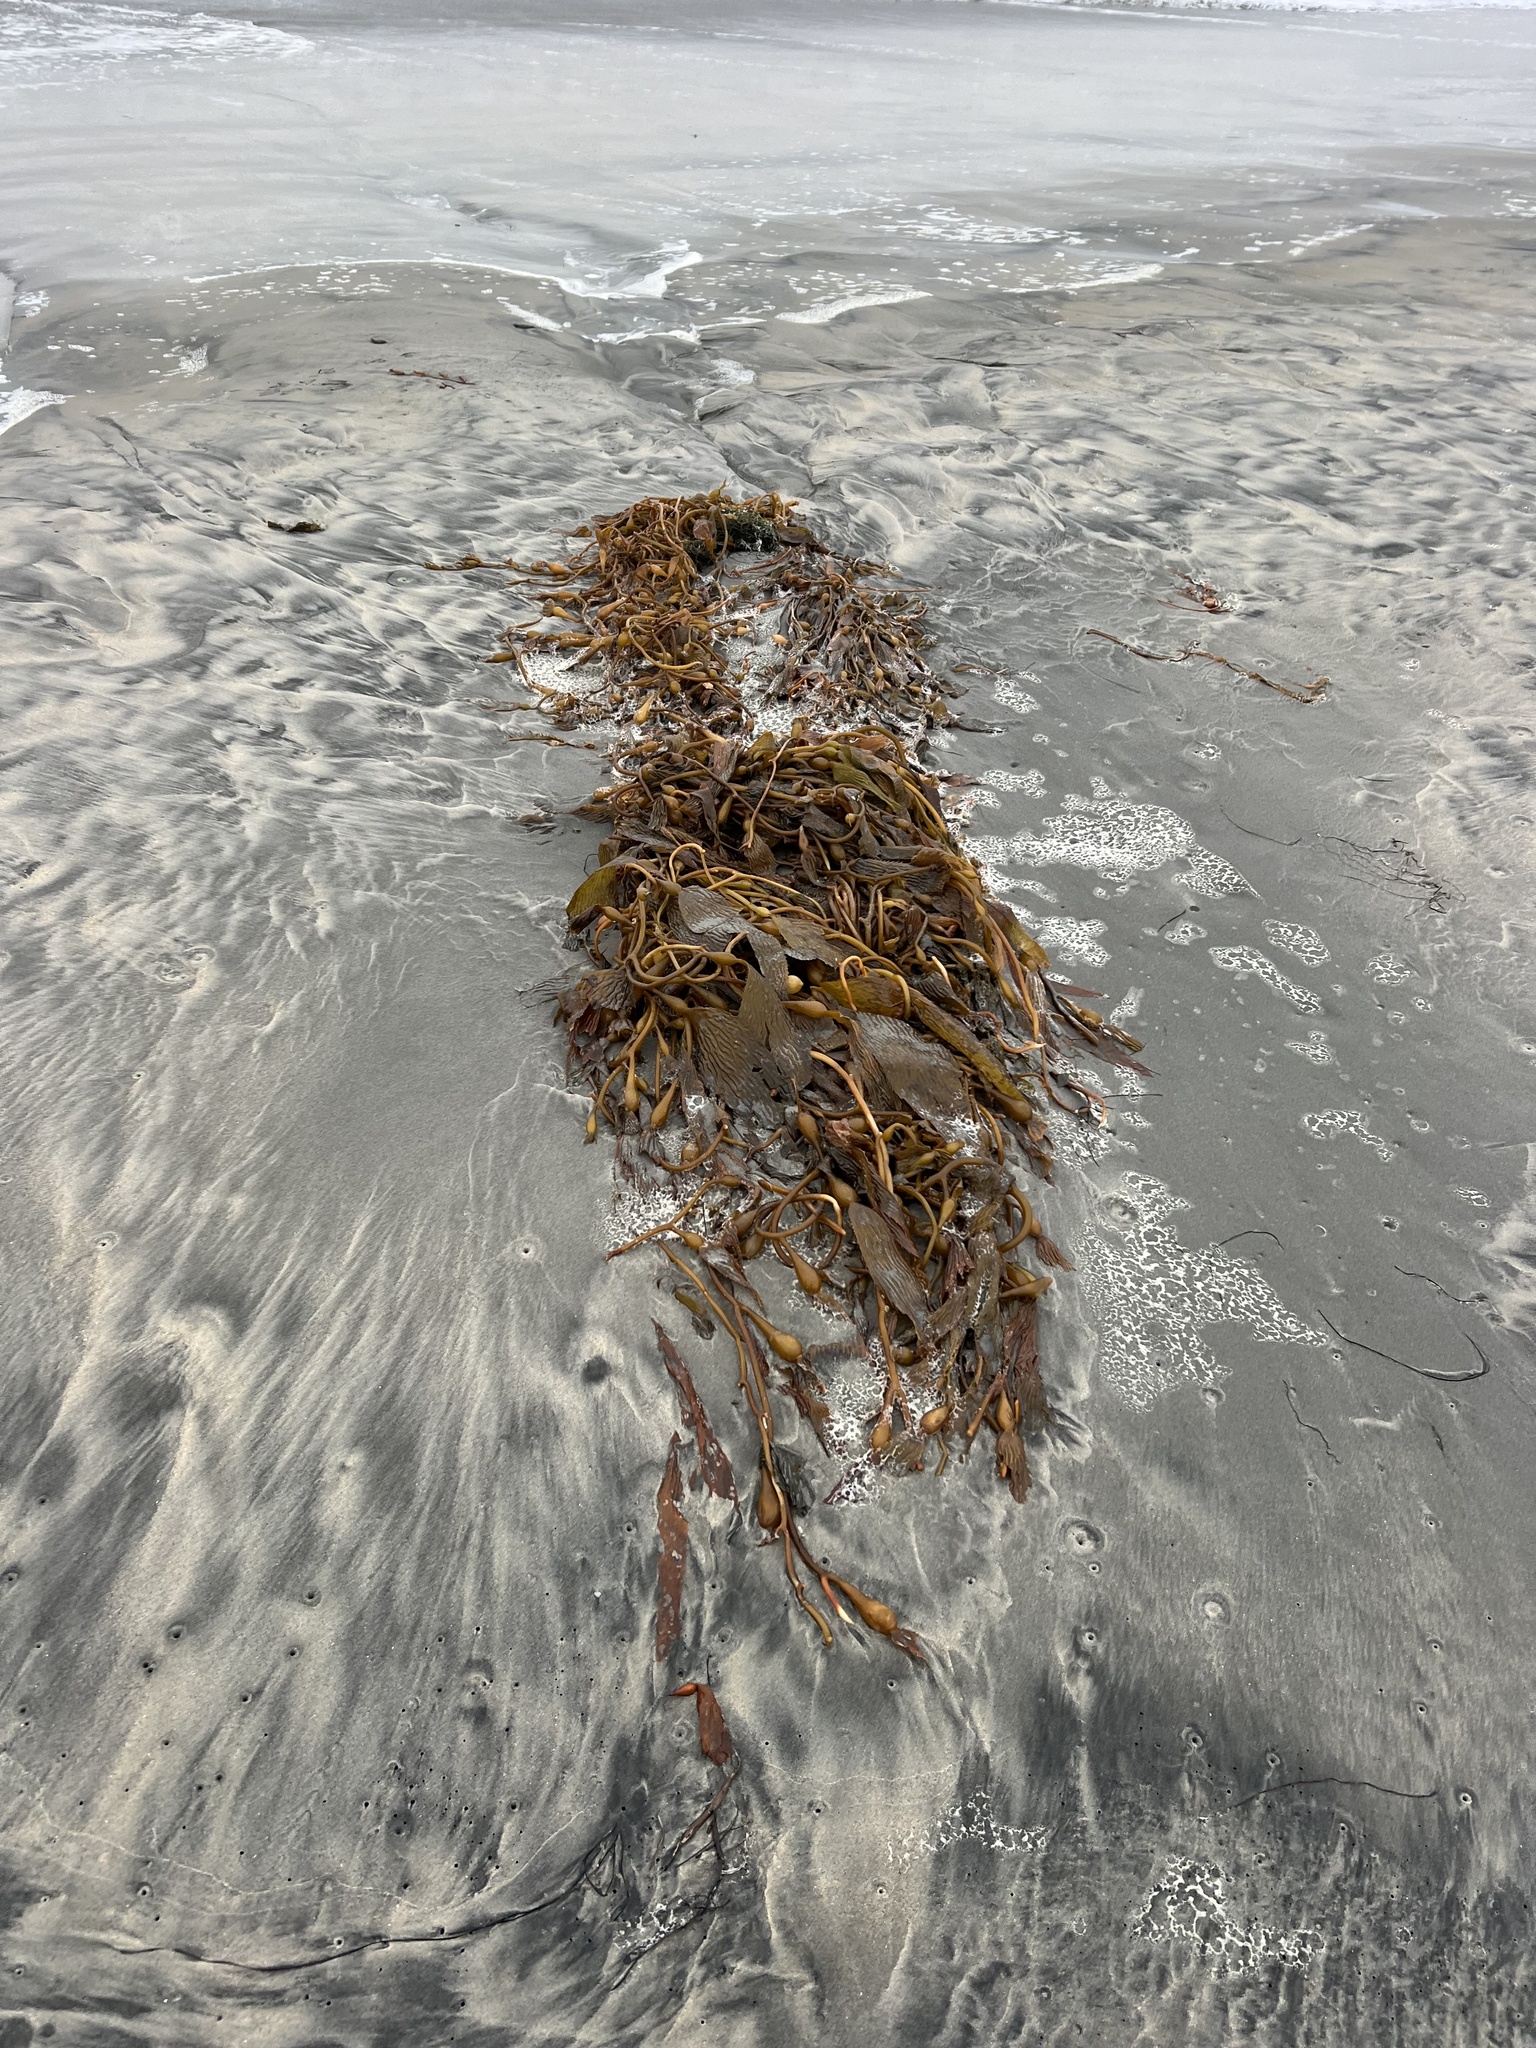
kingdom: Chromista
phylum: Ochrophyta
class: Phaeophyceae
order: Laminariales
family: Laminariaceae
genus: Macrocystis
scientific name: Macrocystis pyrifera
